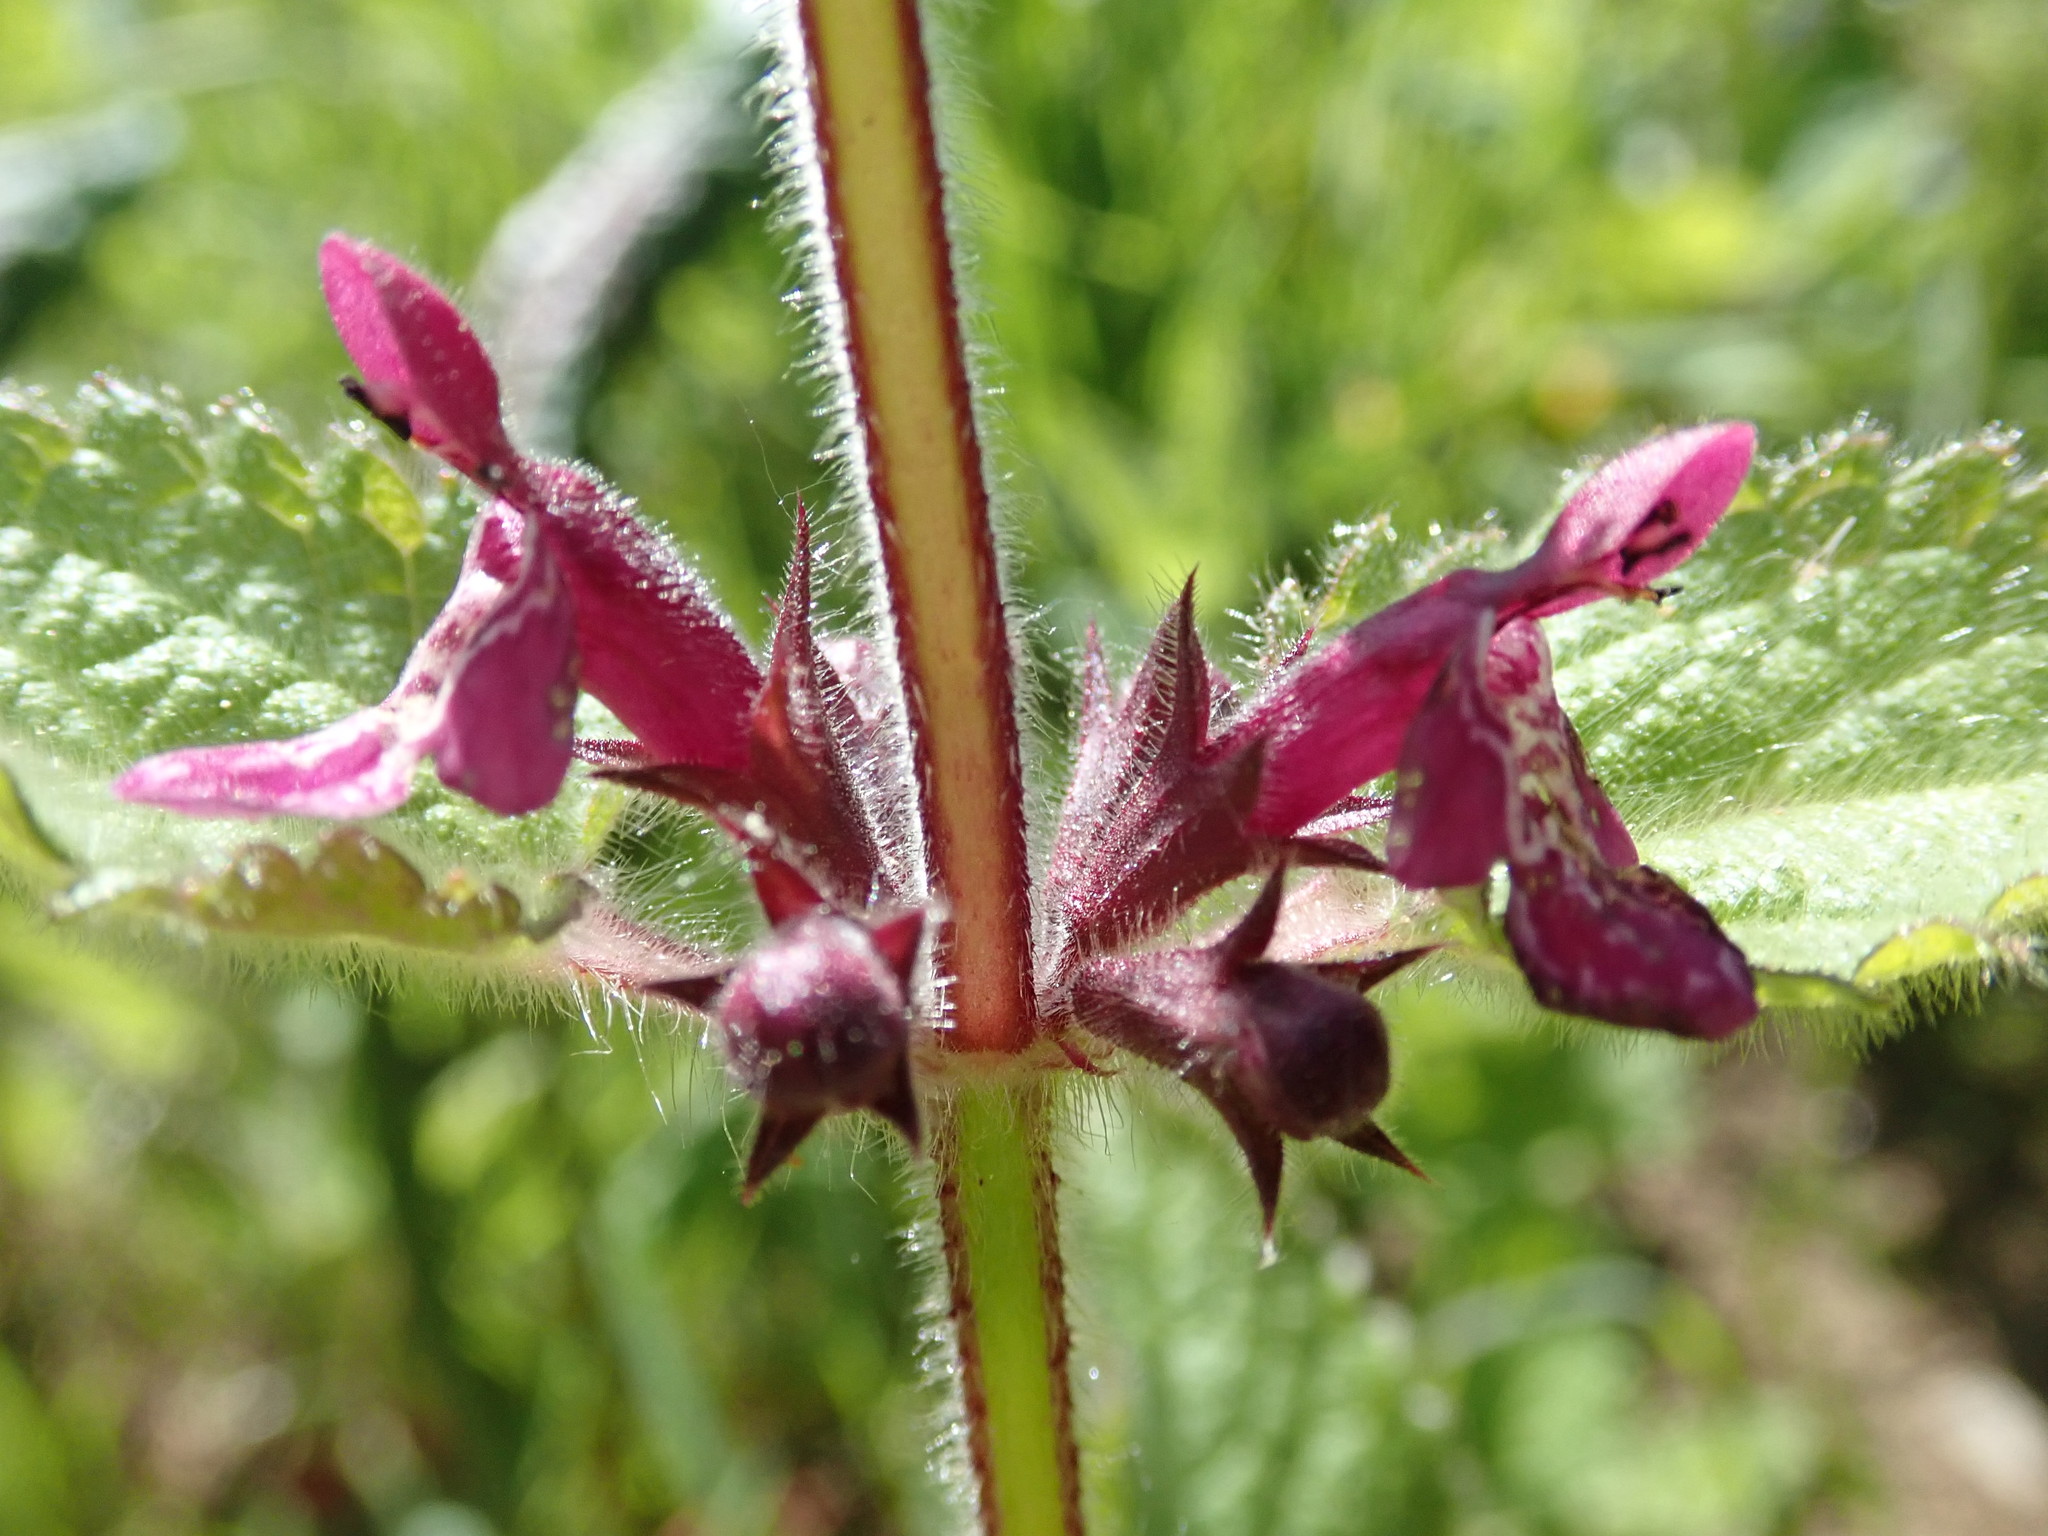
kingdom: Plantae
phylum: Tracheophyta
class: Magnoliopsida
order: Lamiales
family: Lamiaceae
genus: Stachys
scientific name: Stachys sylvatica
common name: Hedge woundwort
